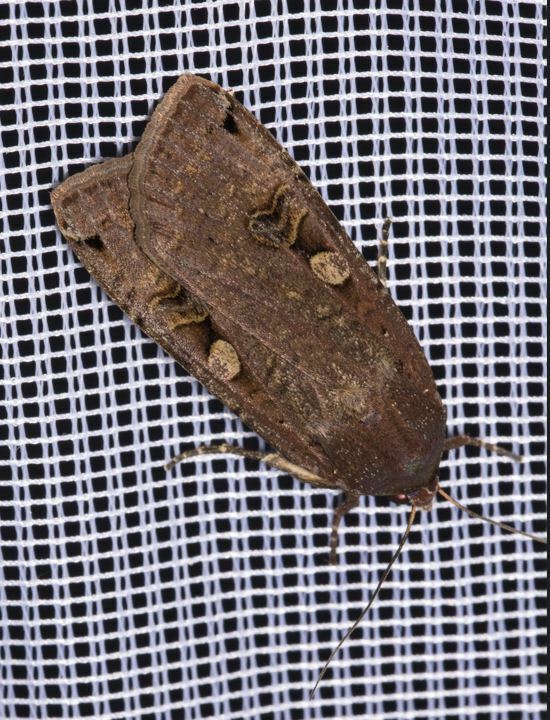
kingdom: Animalia
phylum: Arthropoda
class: Insecta
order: Lepidoptera
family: Noctuidae
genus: Noctua
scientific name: Noctua pronuba
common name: Large yellow underwing
